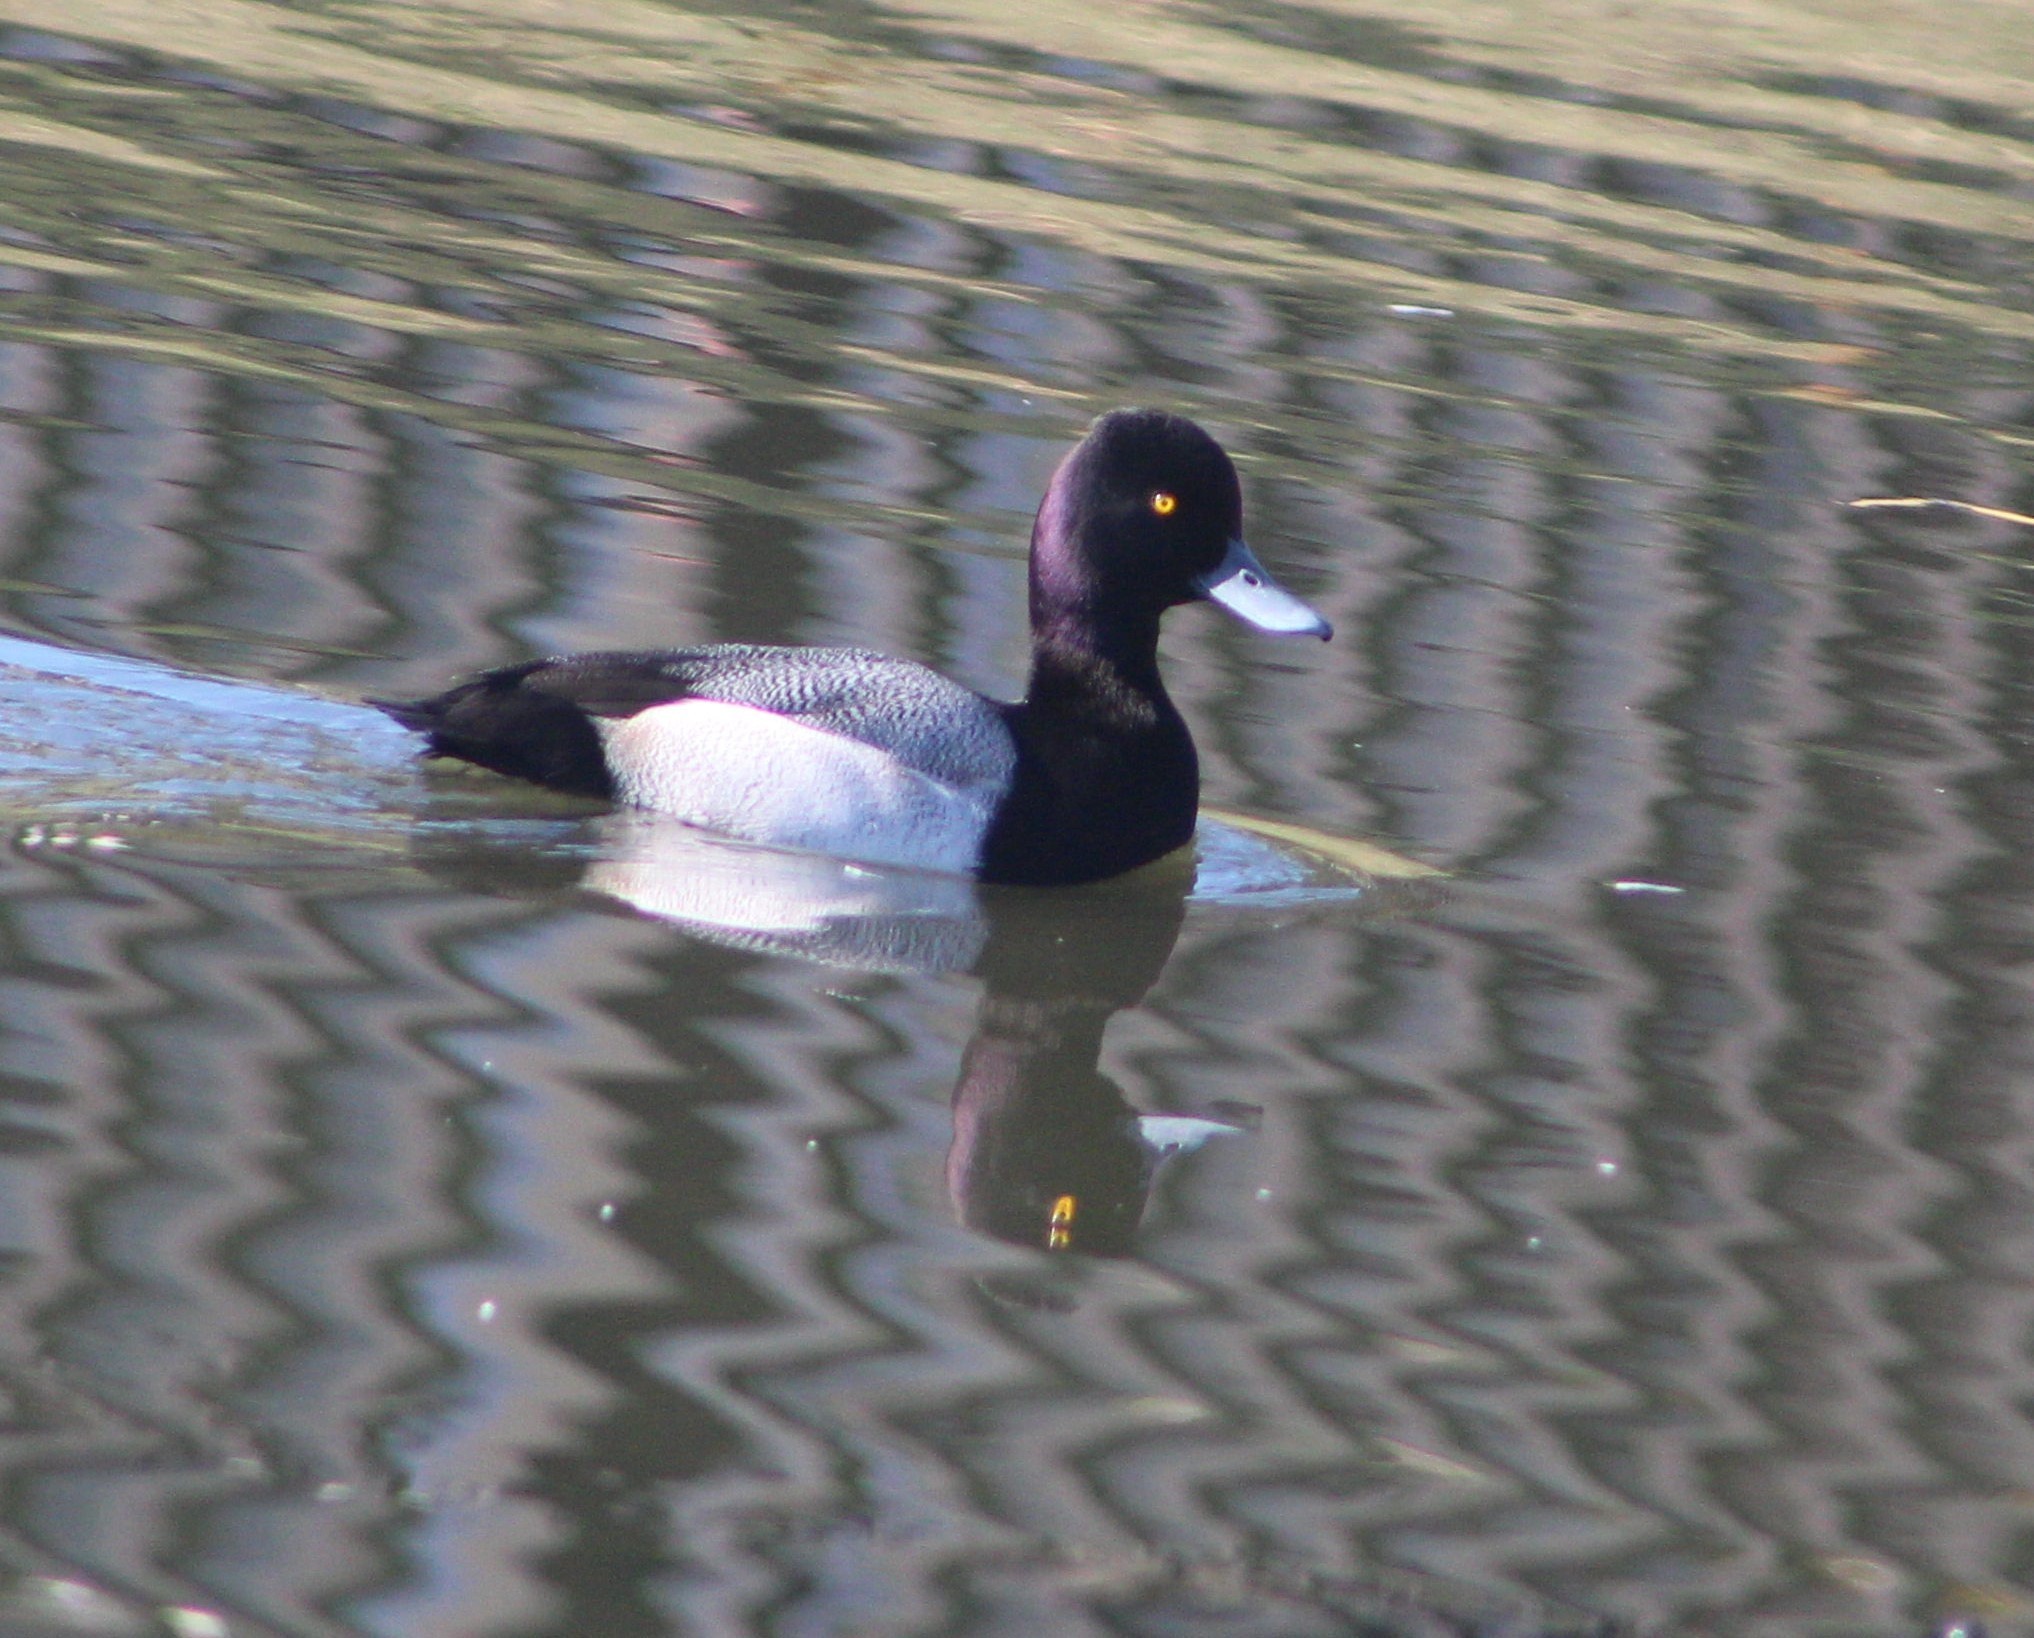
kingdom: Animalia
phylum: Chordata
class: Aves
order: Anseriformes
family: Anatidae
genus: Aythya
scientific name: Aythya affinis
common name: Lesser scaup
